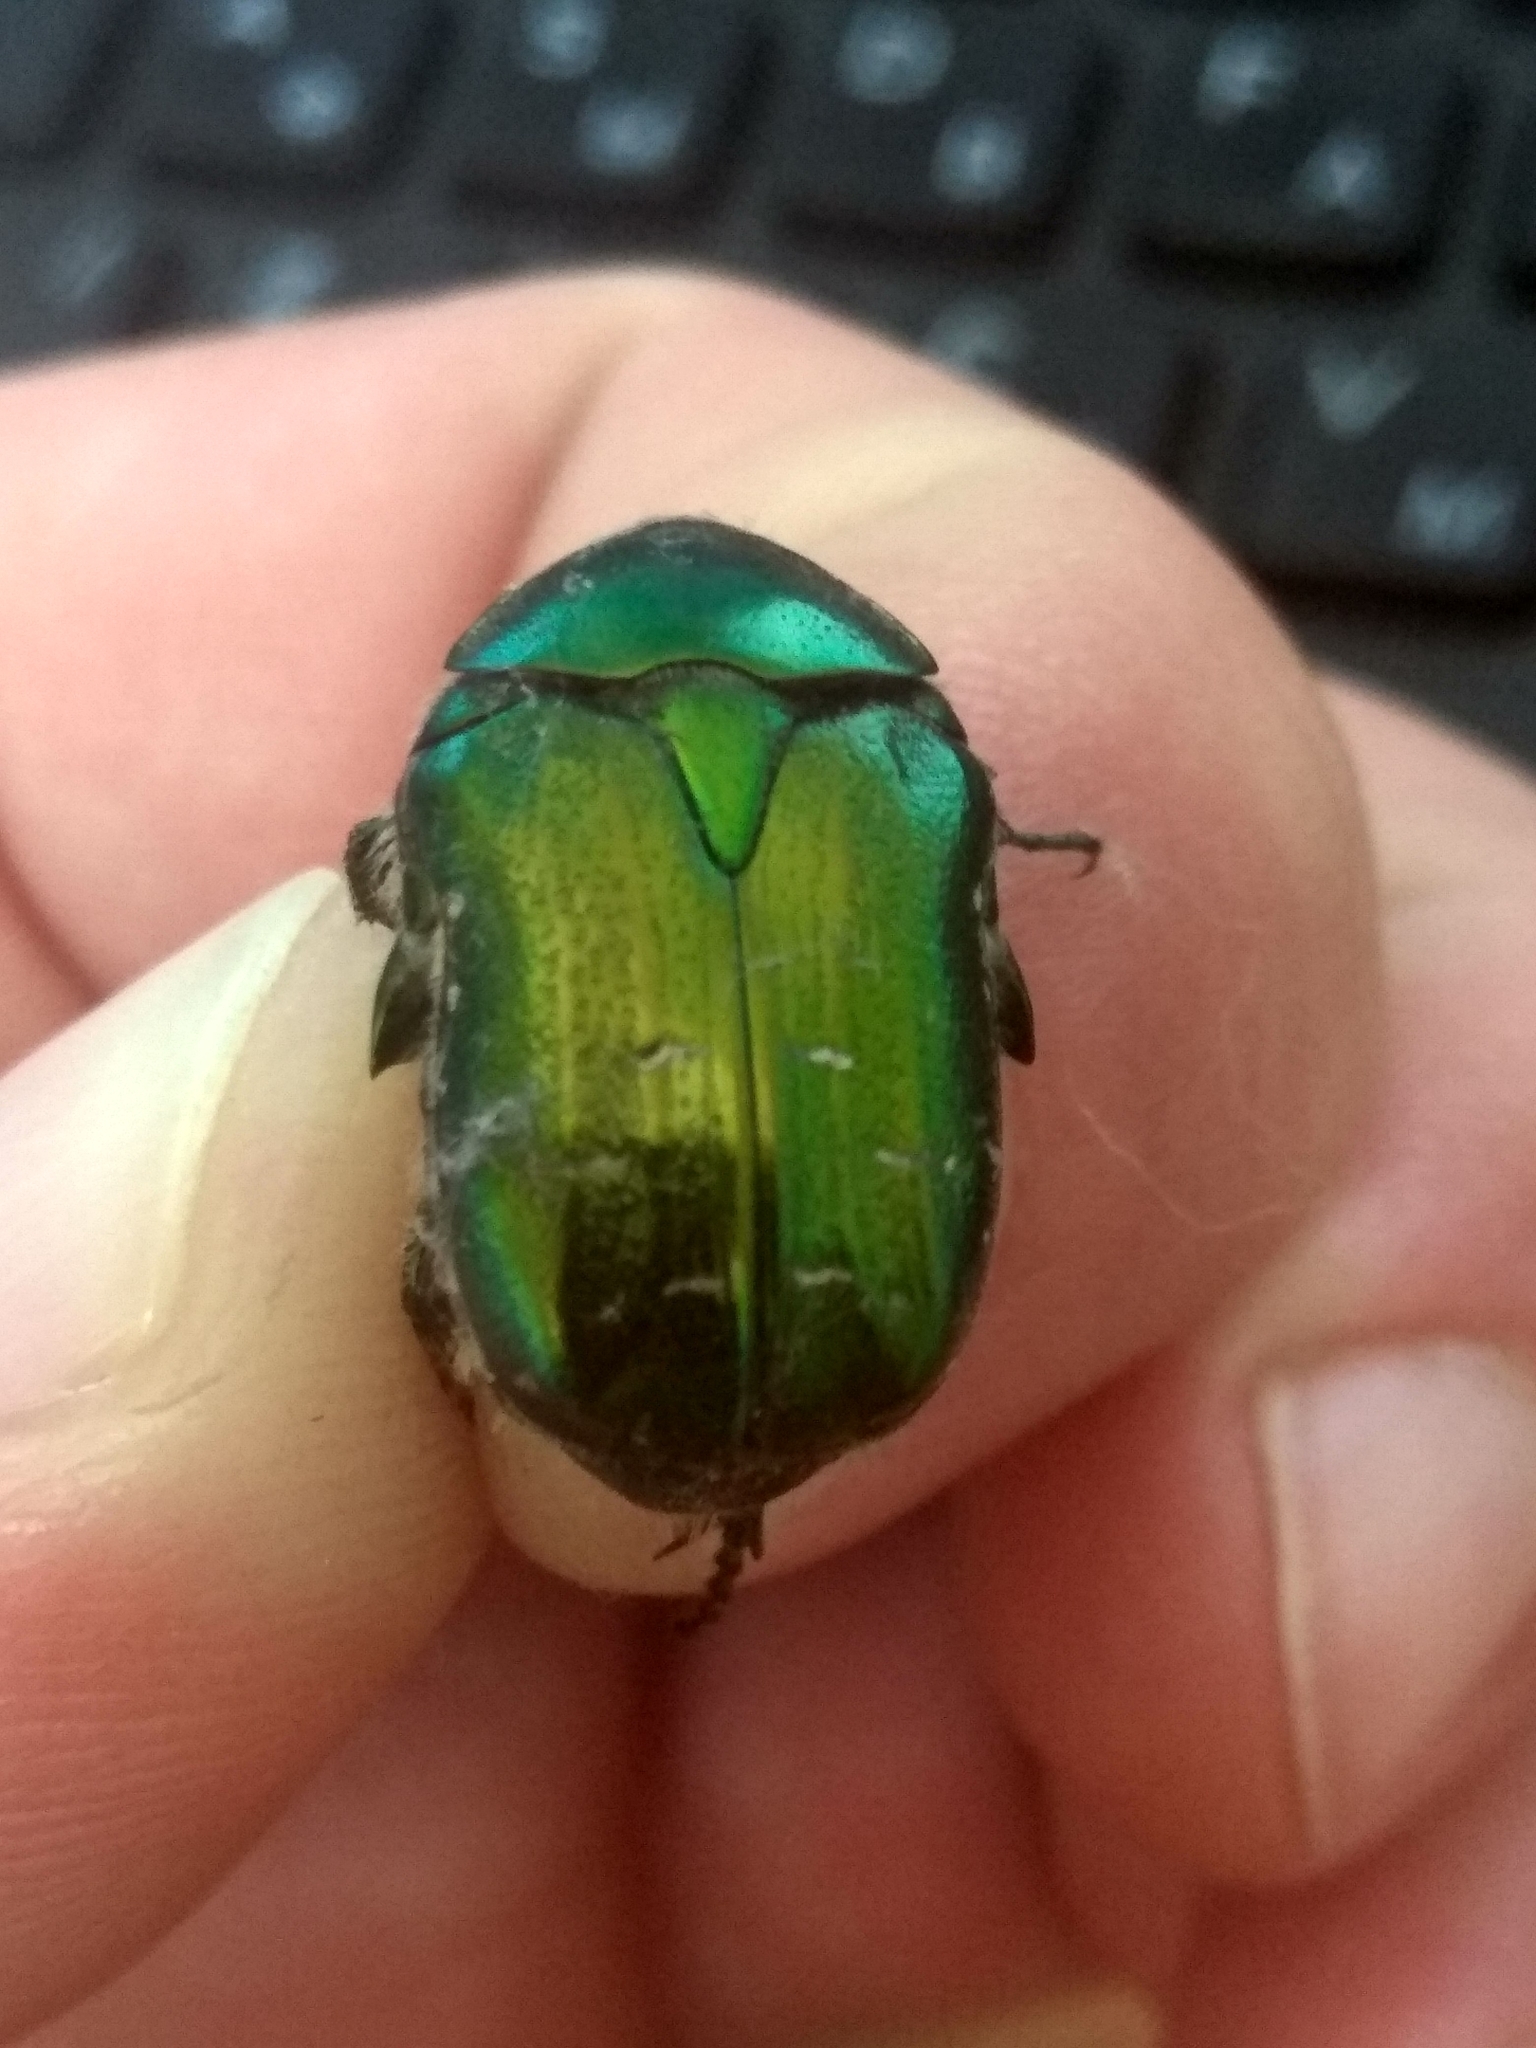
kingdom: Animalia
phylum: Arthropoda
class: Insecta
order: Coleoptera
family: Scarabaeidae
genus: Cetonia
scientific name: Cetonia aurata
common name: Rose chafer
